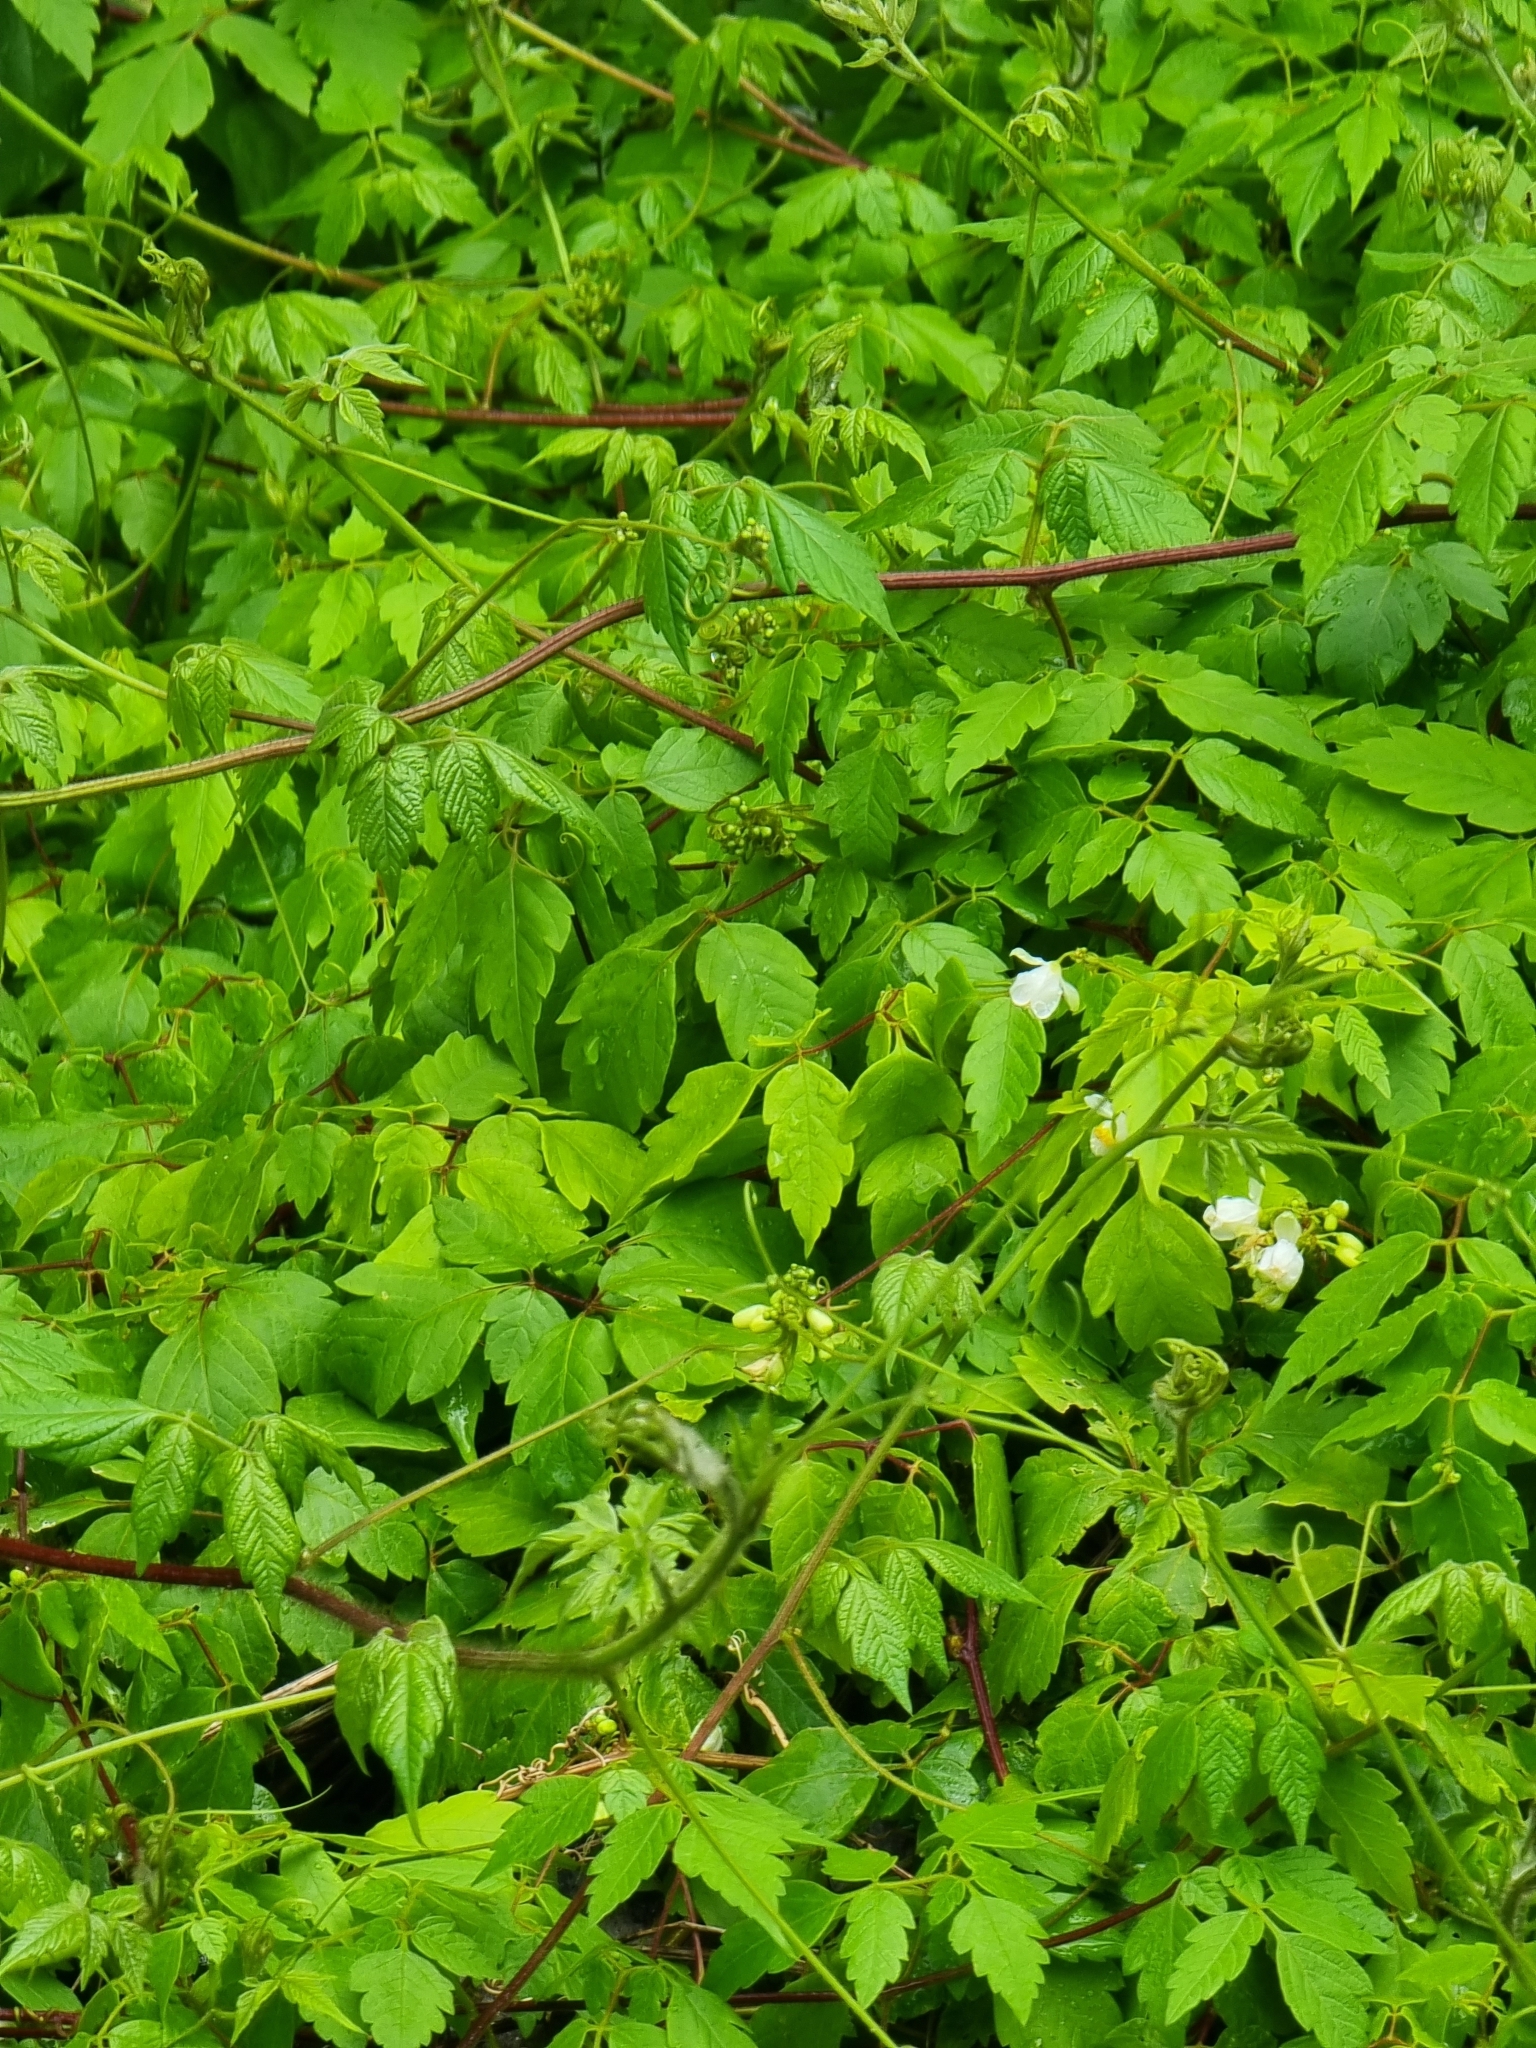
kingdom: Plantae
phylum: Tracheophyta
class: Magnoliopsida
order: Sapindales
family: Sapindaceae
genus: Cardiospermum
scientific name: Cardiospermum grandiflorum
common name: Balloon vine
